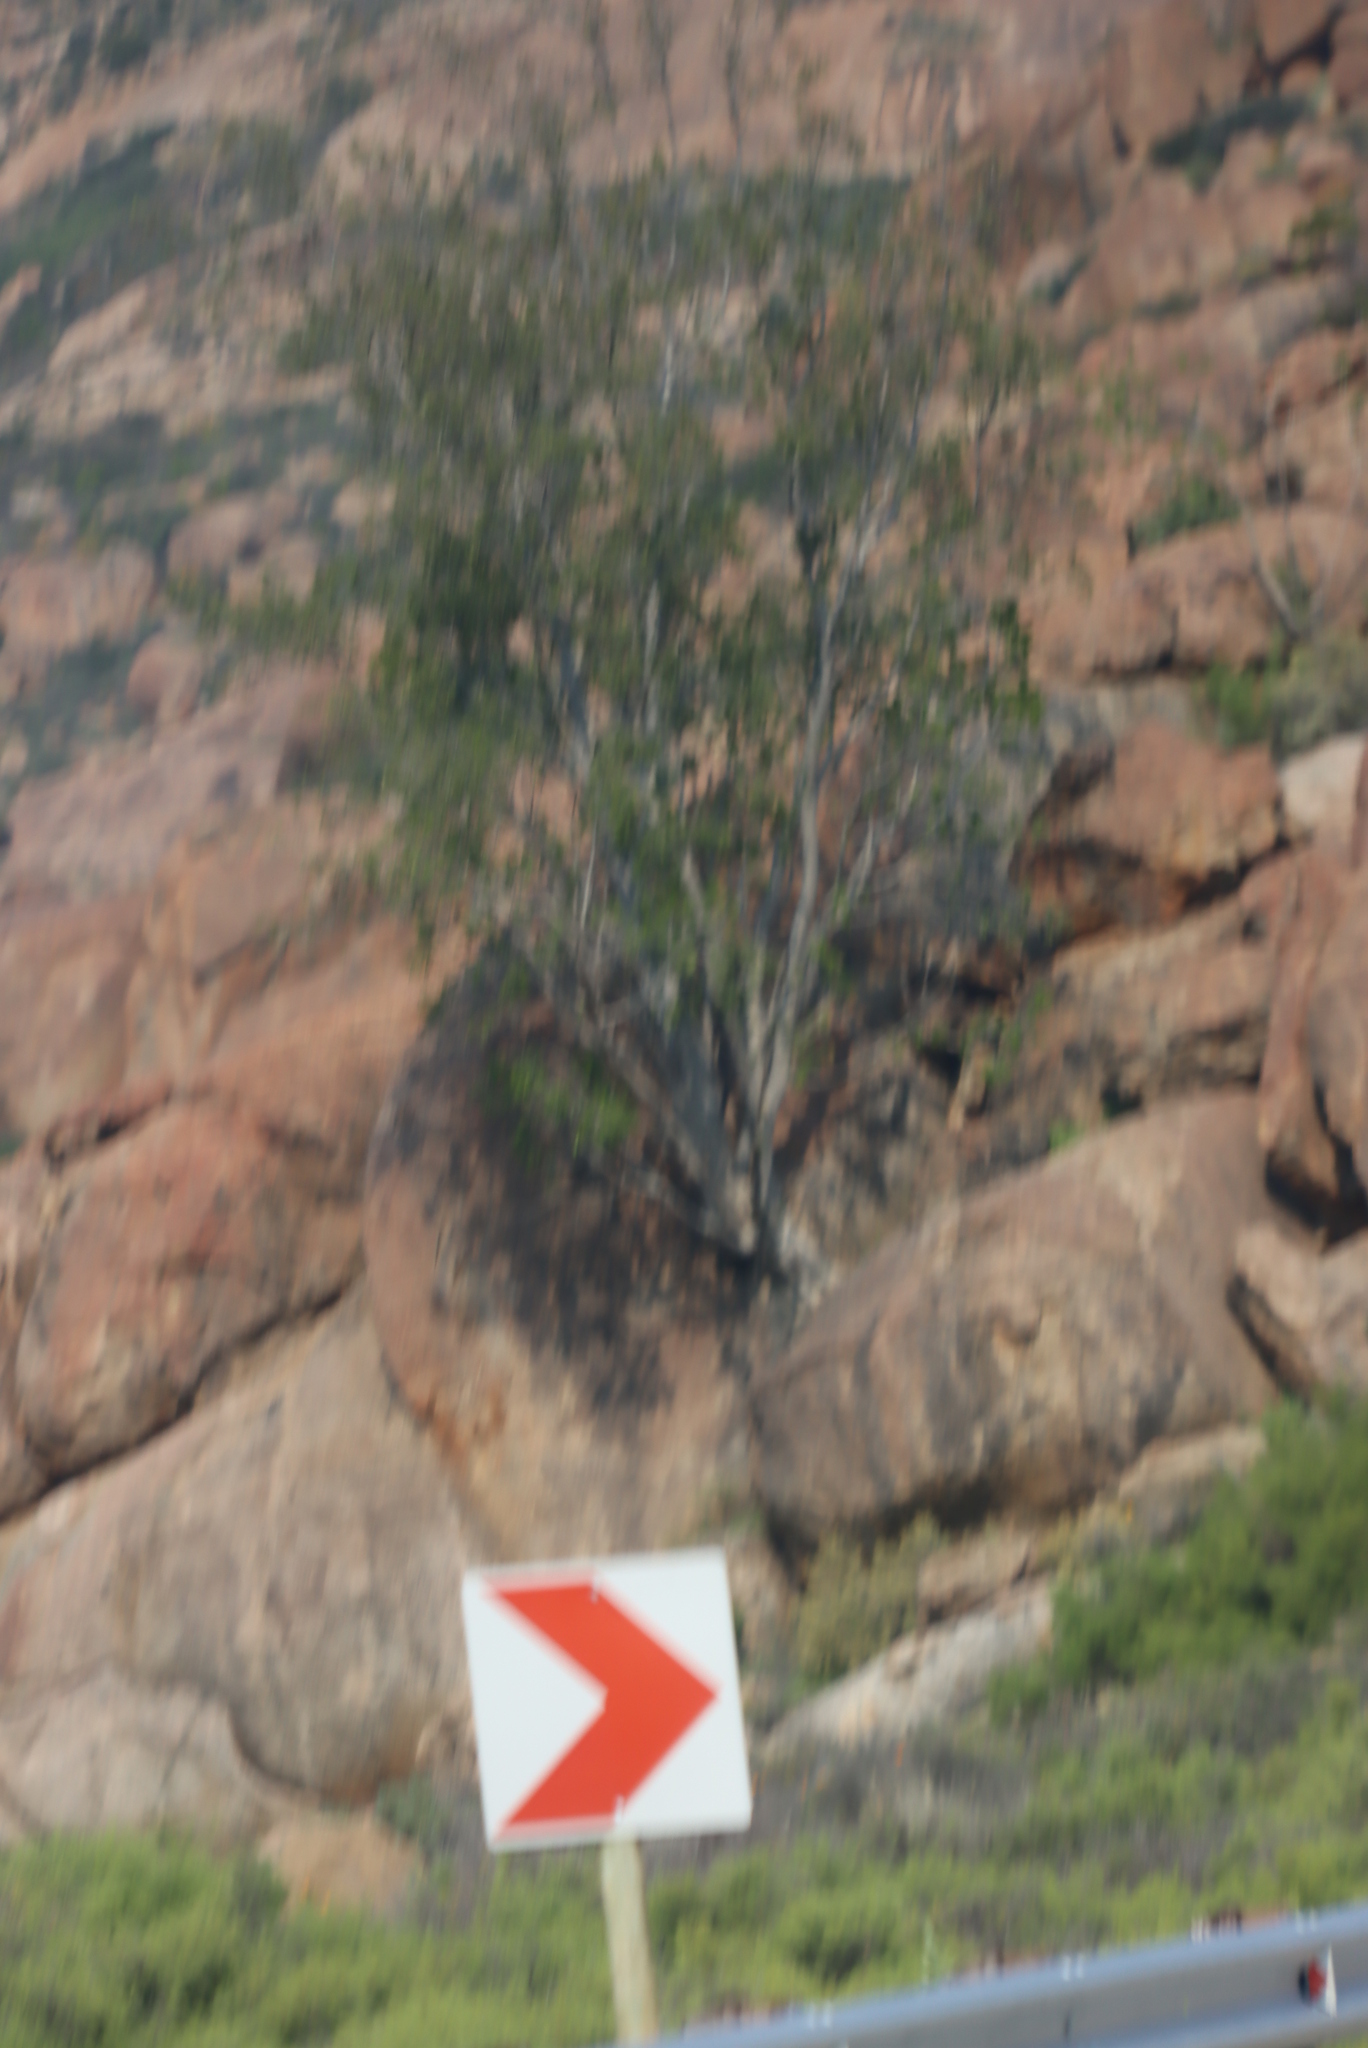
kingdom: Plantae
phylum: Tracheophyta
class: Magnoliopsida
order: Rosales
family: Moraceae
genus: Ficus
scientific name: Ficus cordata
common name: Namaqua rock fig
